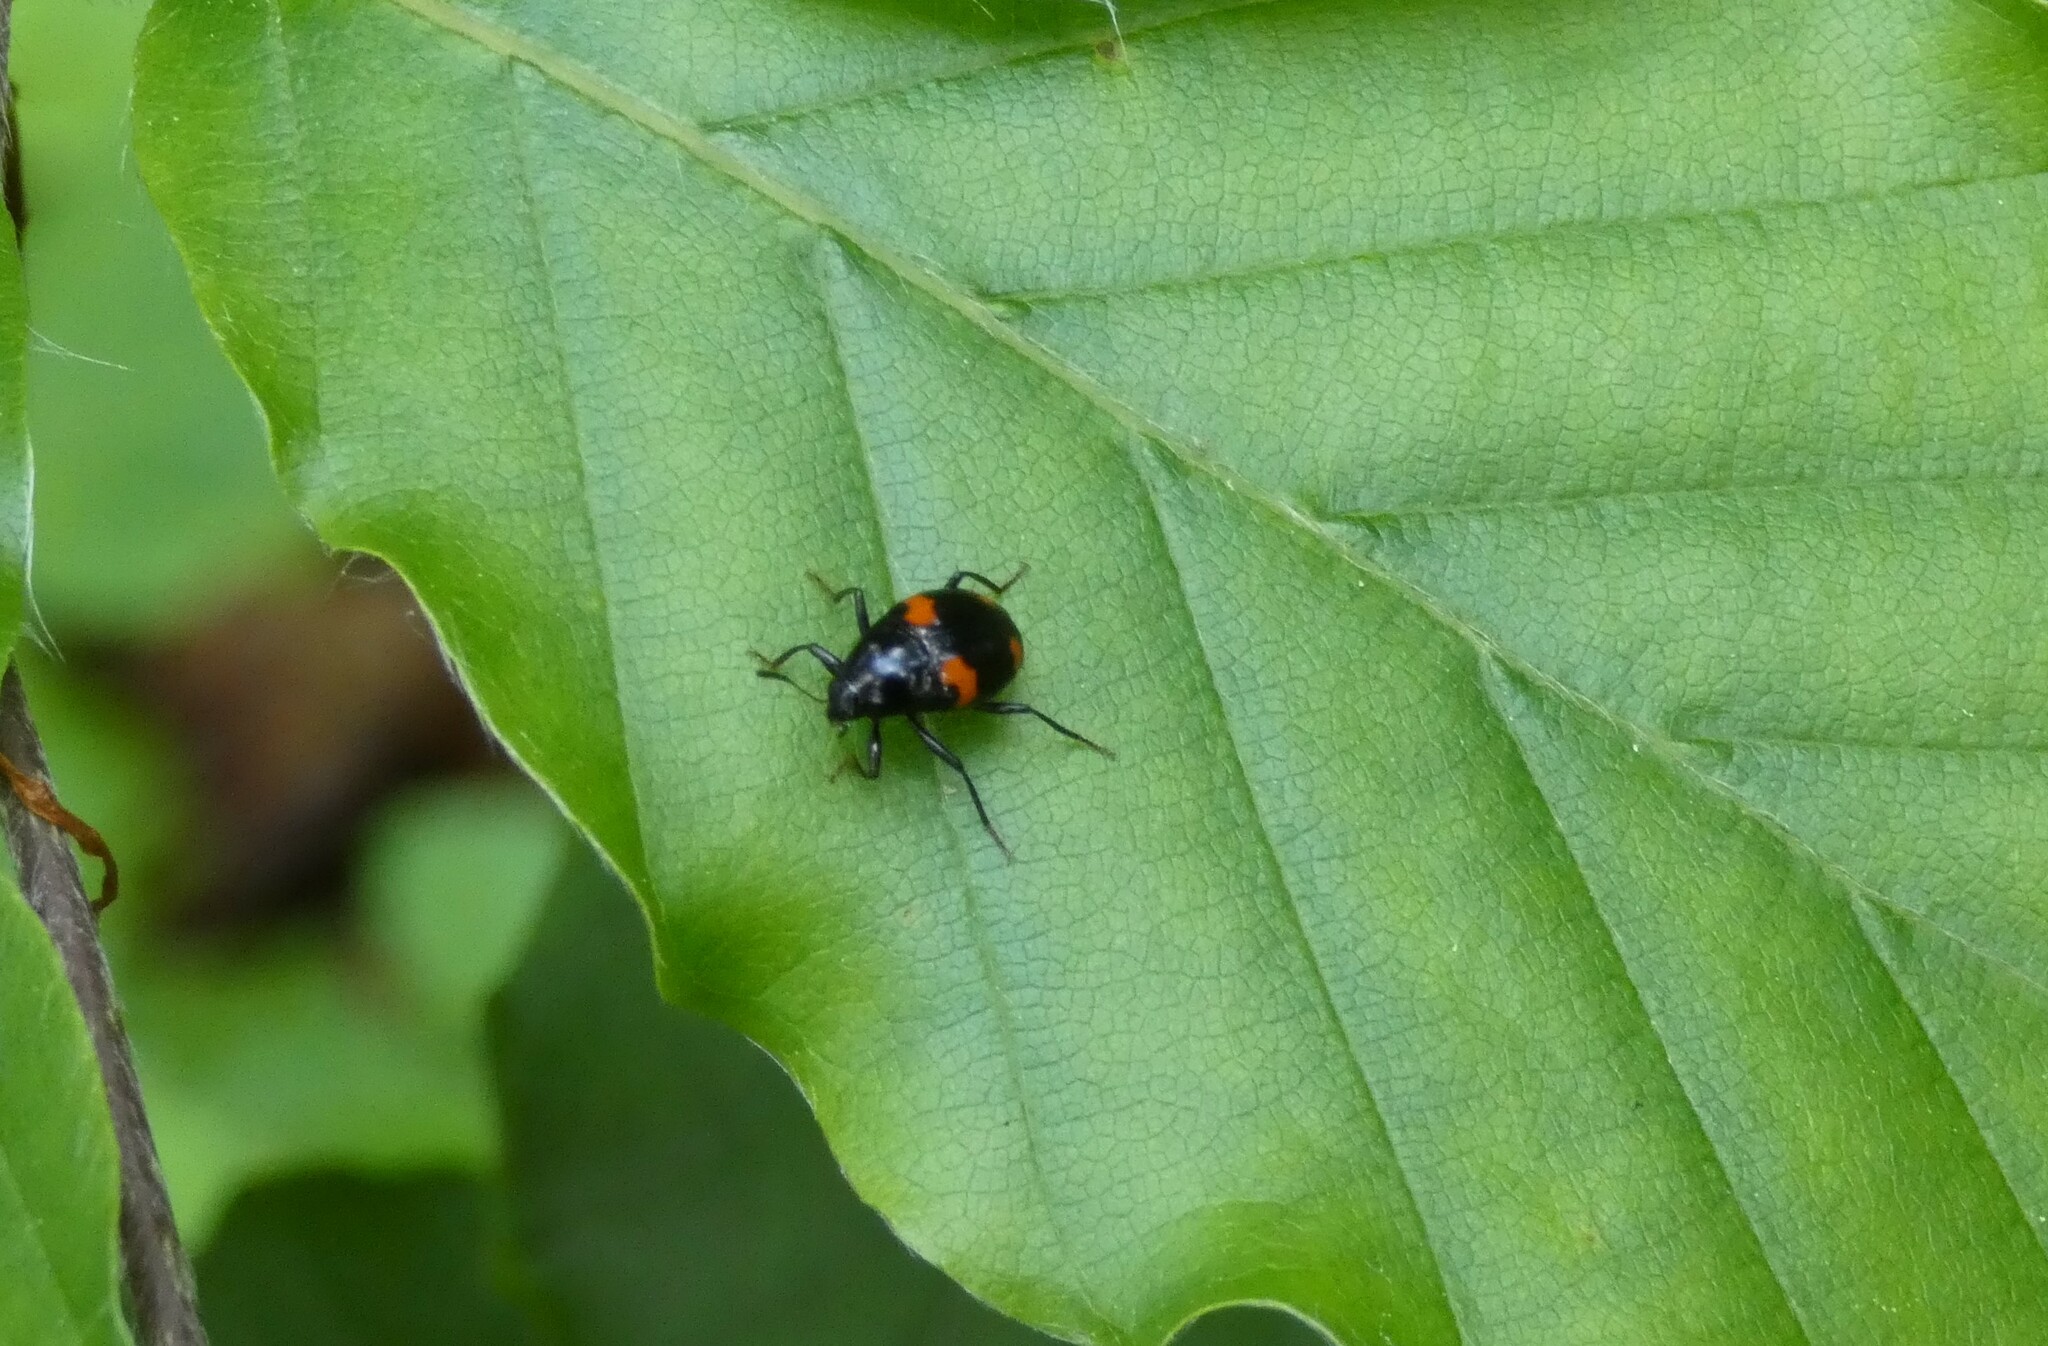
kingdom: Animalia
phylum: Arthropoda
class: Insecta
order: Coleoptera
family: Staphylinidae
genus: Scaphidium
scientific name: Scaphidium quadrimaculatum
